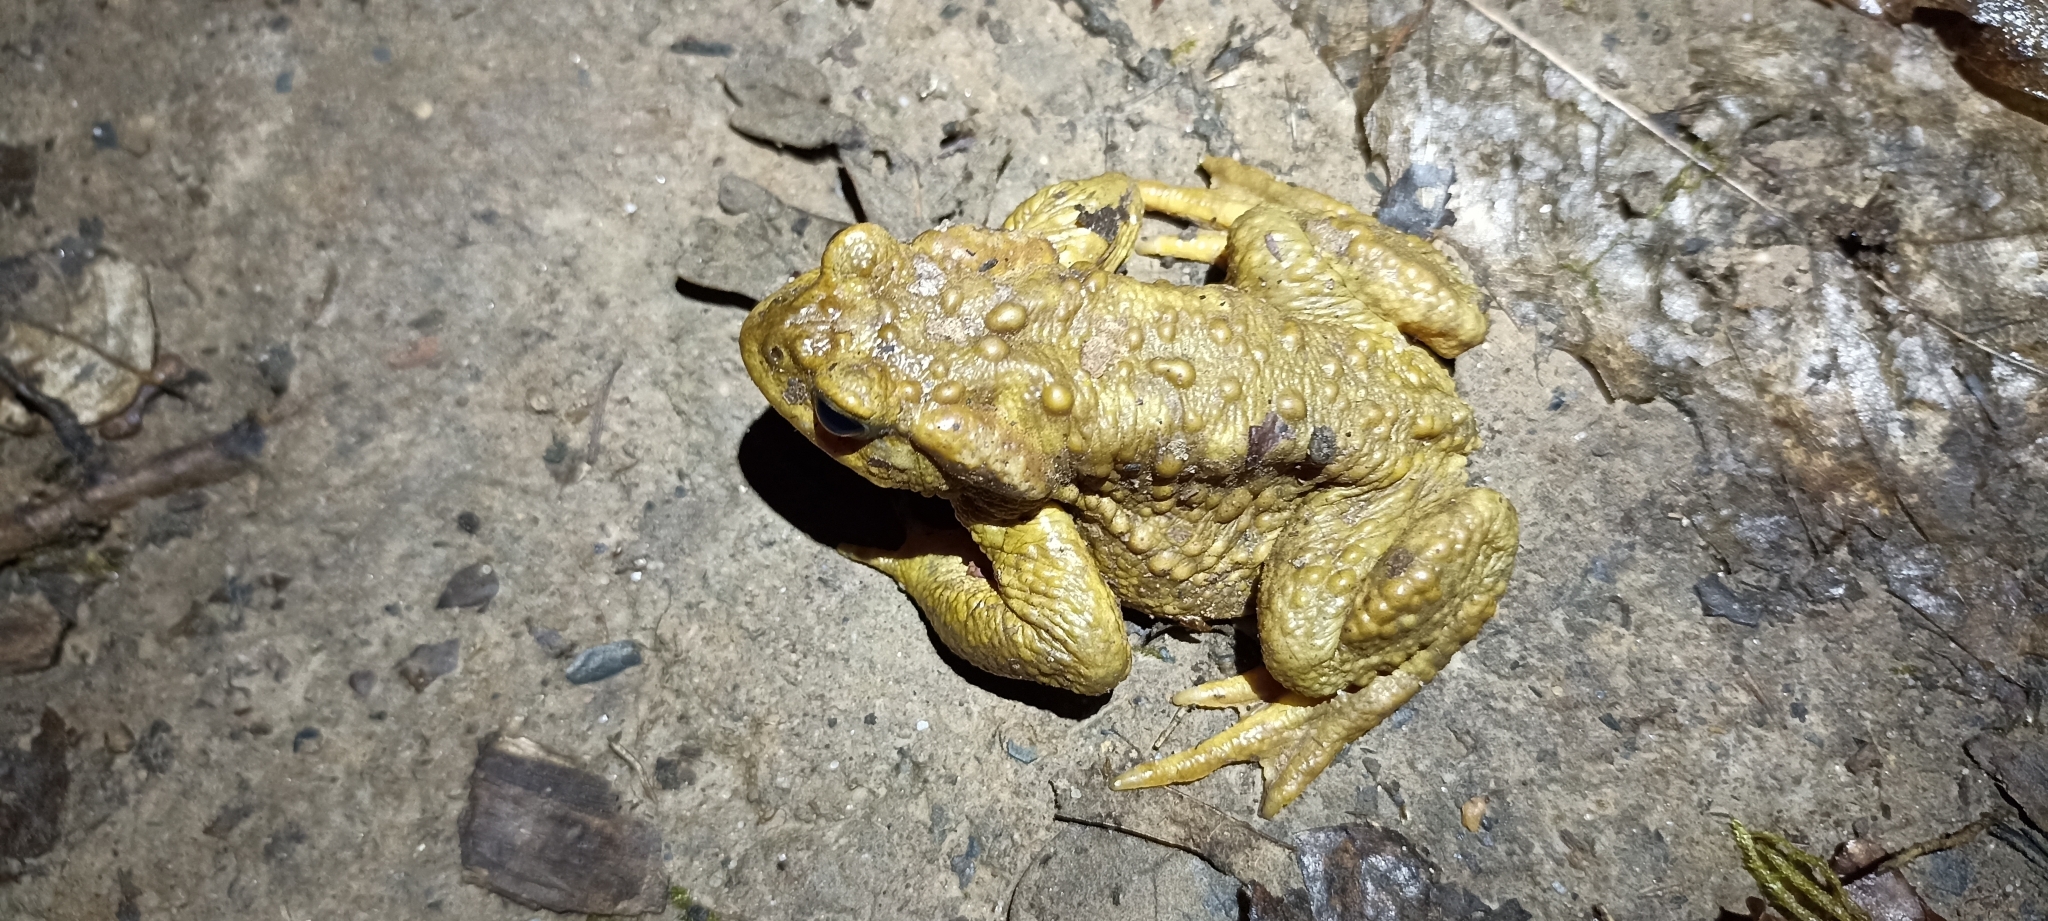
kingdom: Animalia
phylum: Chordata
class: Amphibia
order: Anura
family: Bufonidae
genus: Bufo
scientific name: Bufo spinosus
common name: Western common toad
